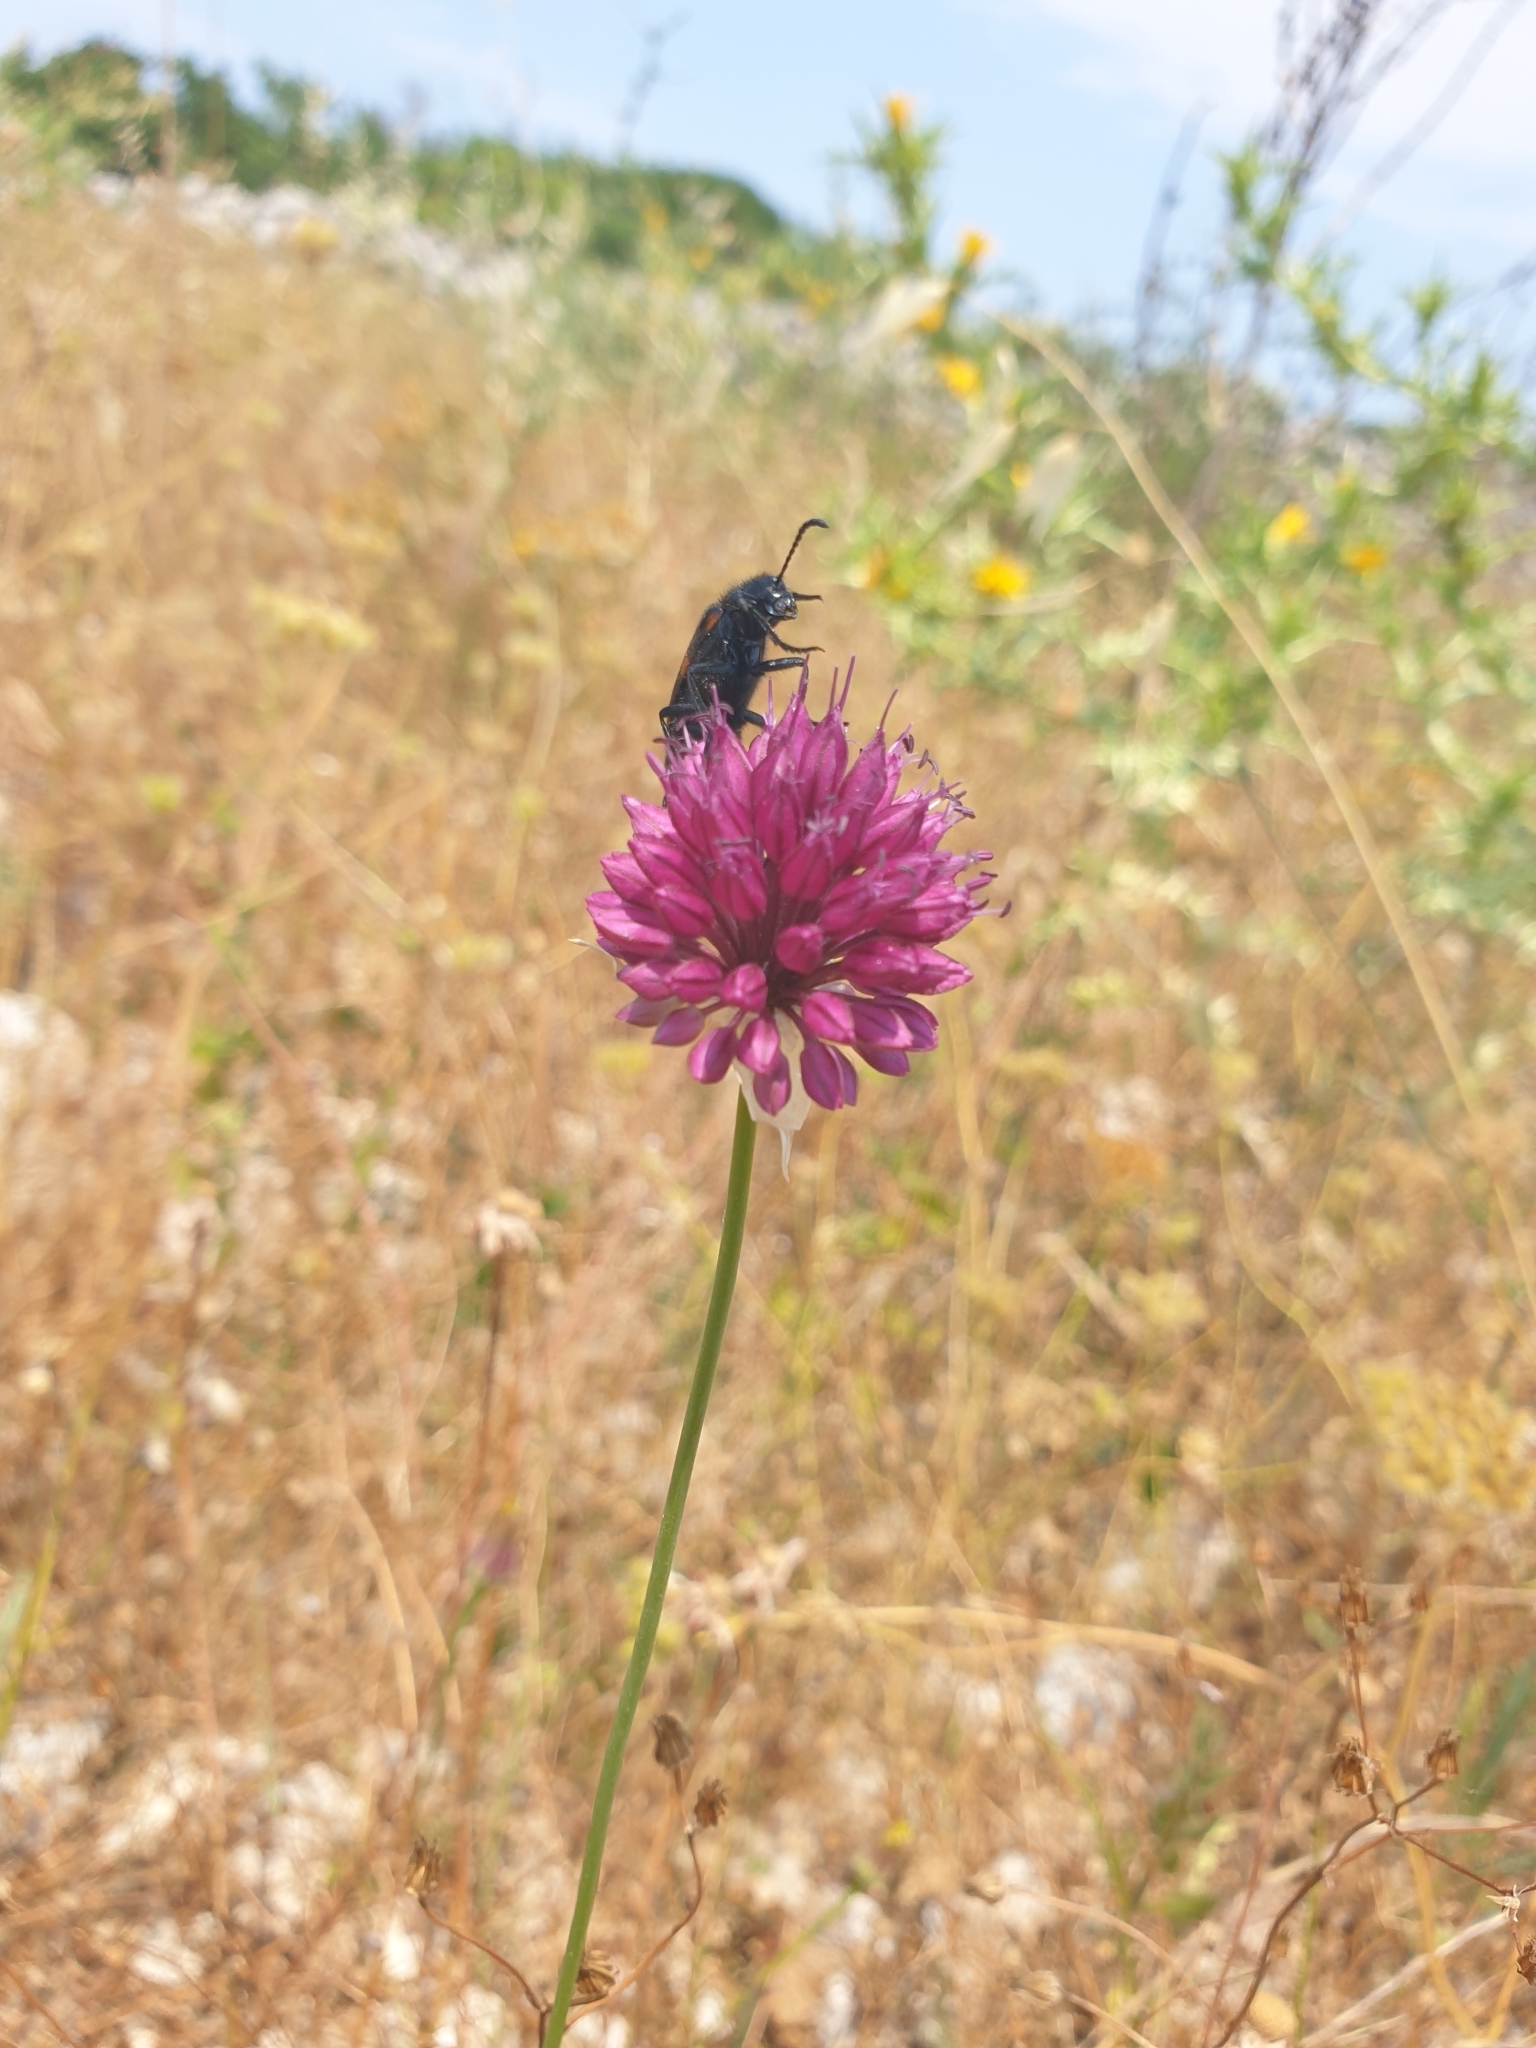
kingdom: Plantae
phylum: Tracheophyta
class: Liliopsida
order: Asparagales
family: Amaryllidaceae
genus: Allium
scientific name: Allium sphaerocephalon
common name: Round-headed leek
